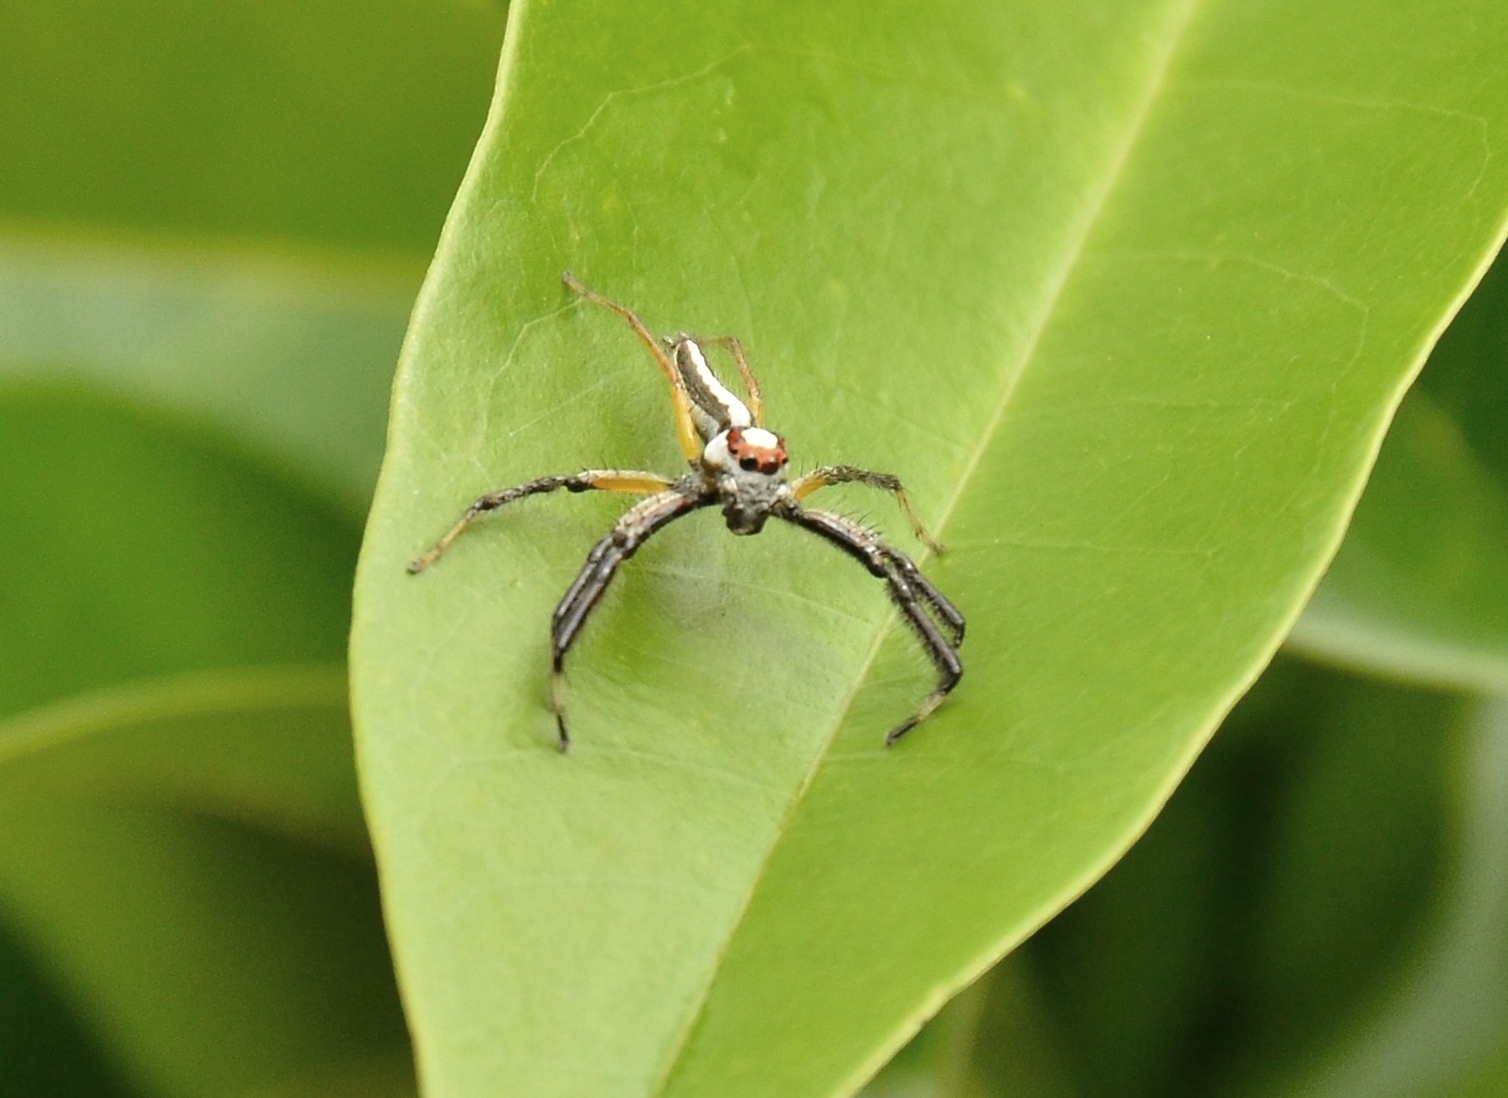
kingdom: Animalia
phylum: Arthropoda
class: Arachnida
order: Araneae
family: Salticidae
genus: Telamonia
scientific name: Telamonia dimidiata
